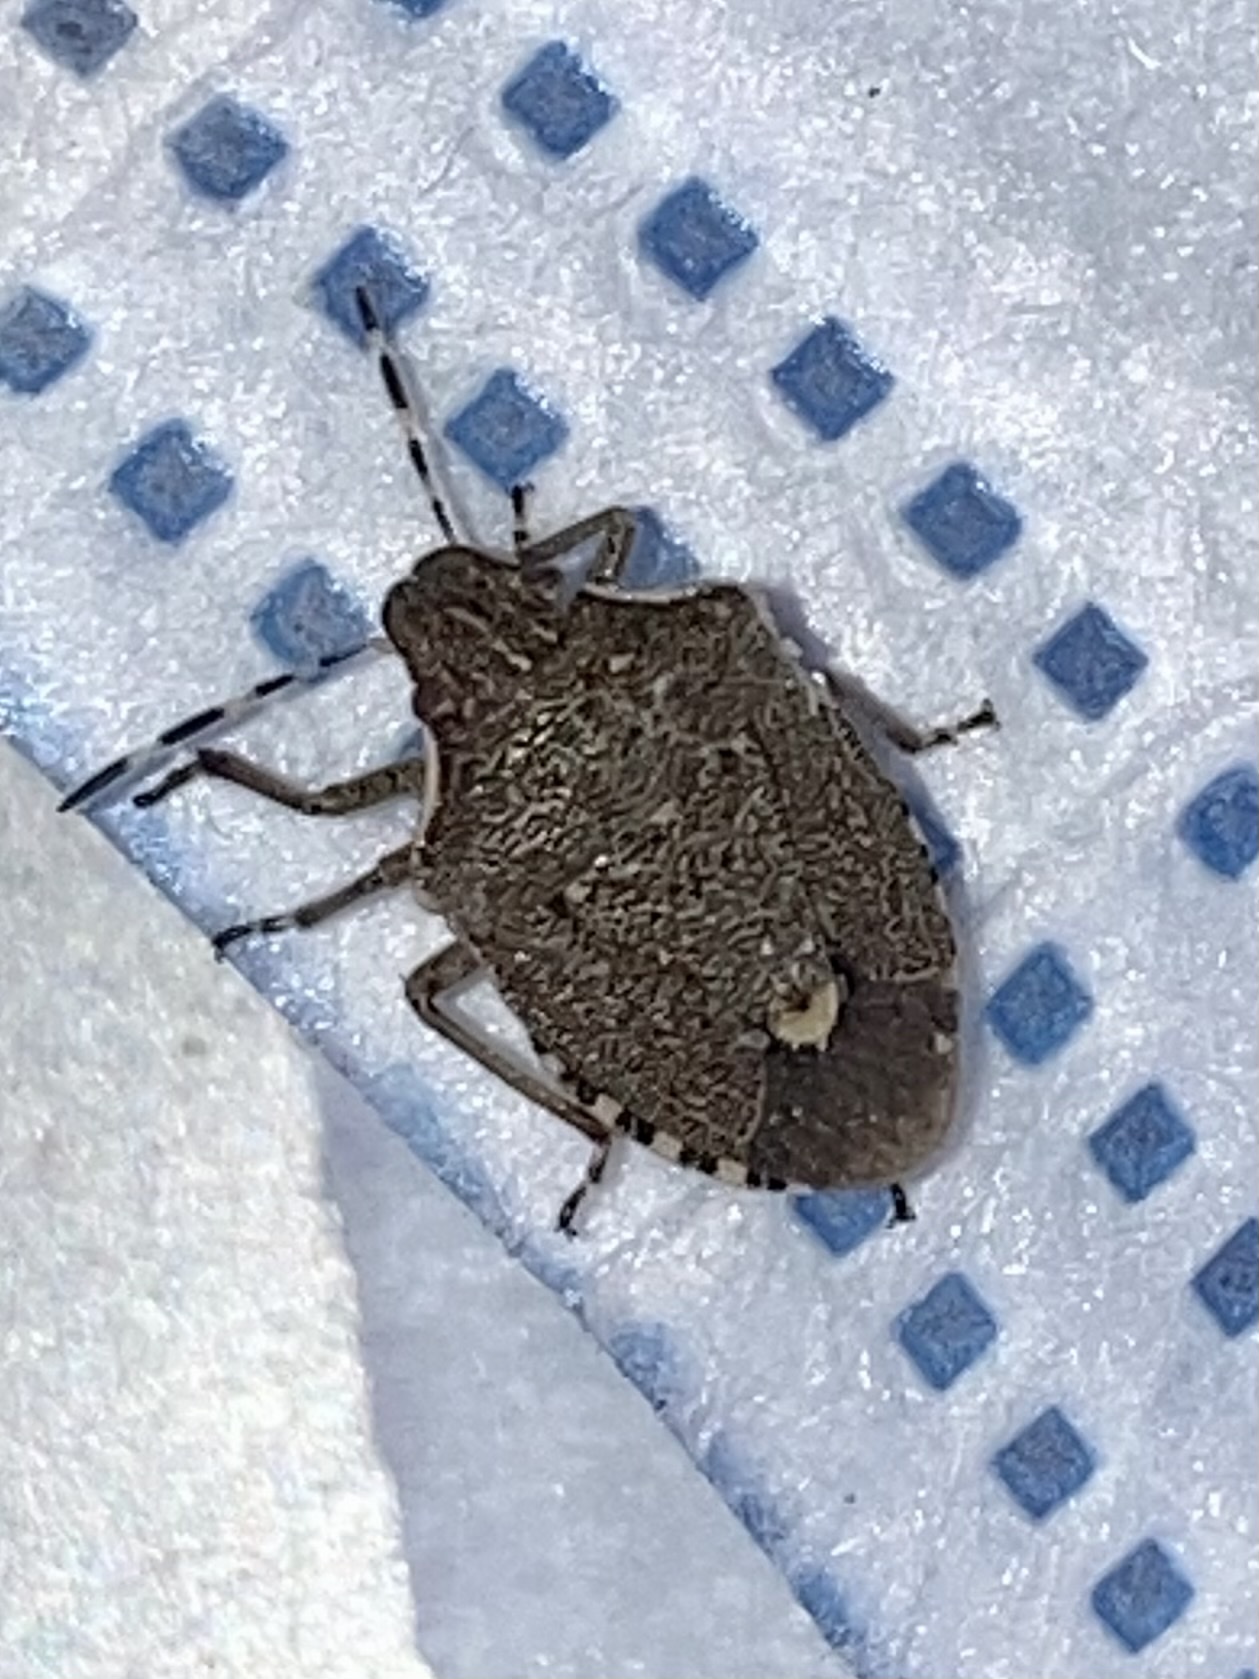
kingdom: Animalia
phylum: Arthropoda
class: Insecta
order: Hemiptera
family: Pentatomidae
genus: Holcostethus
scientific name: Holcostethus albipes
